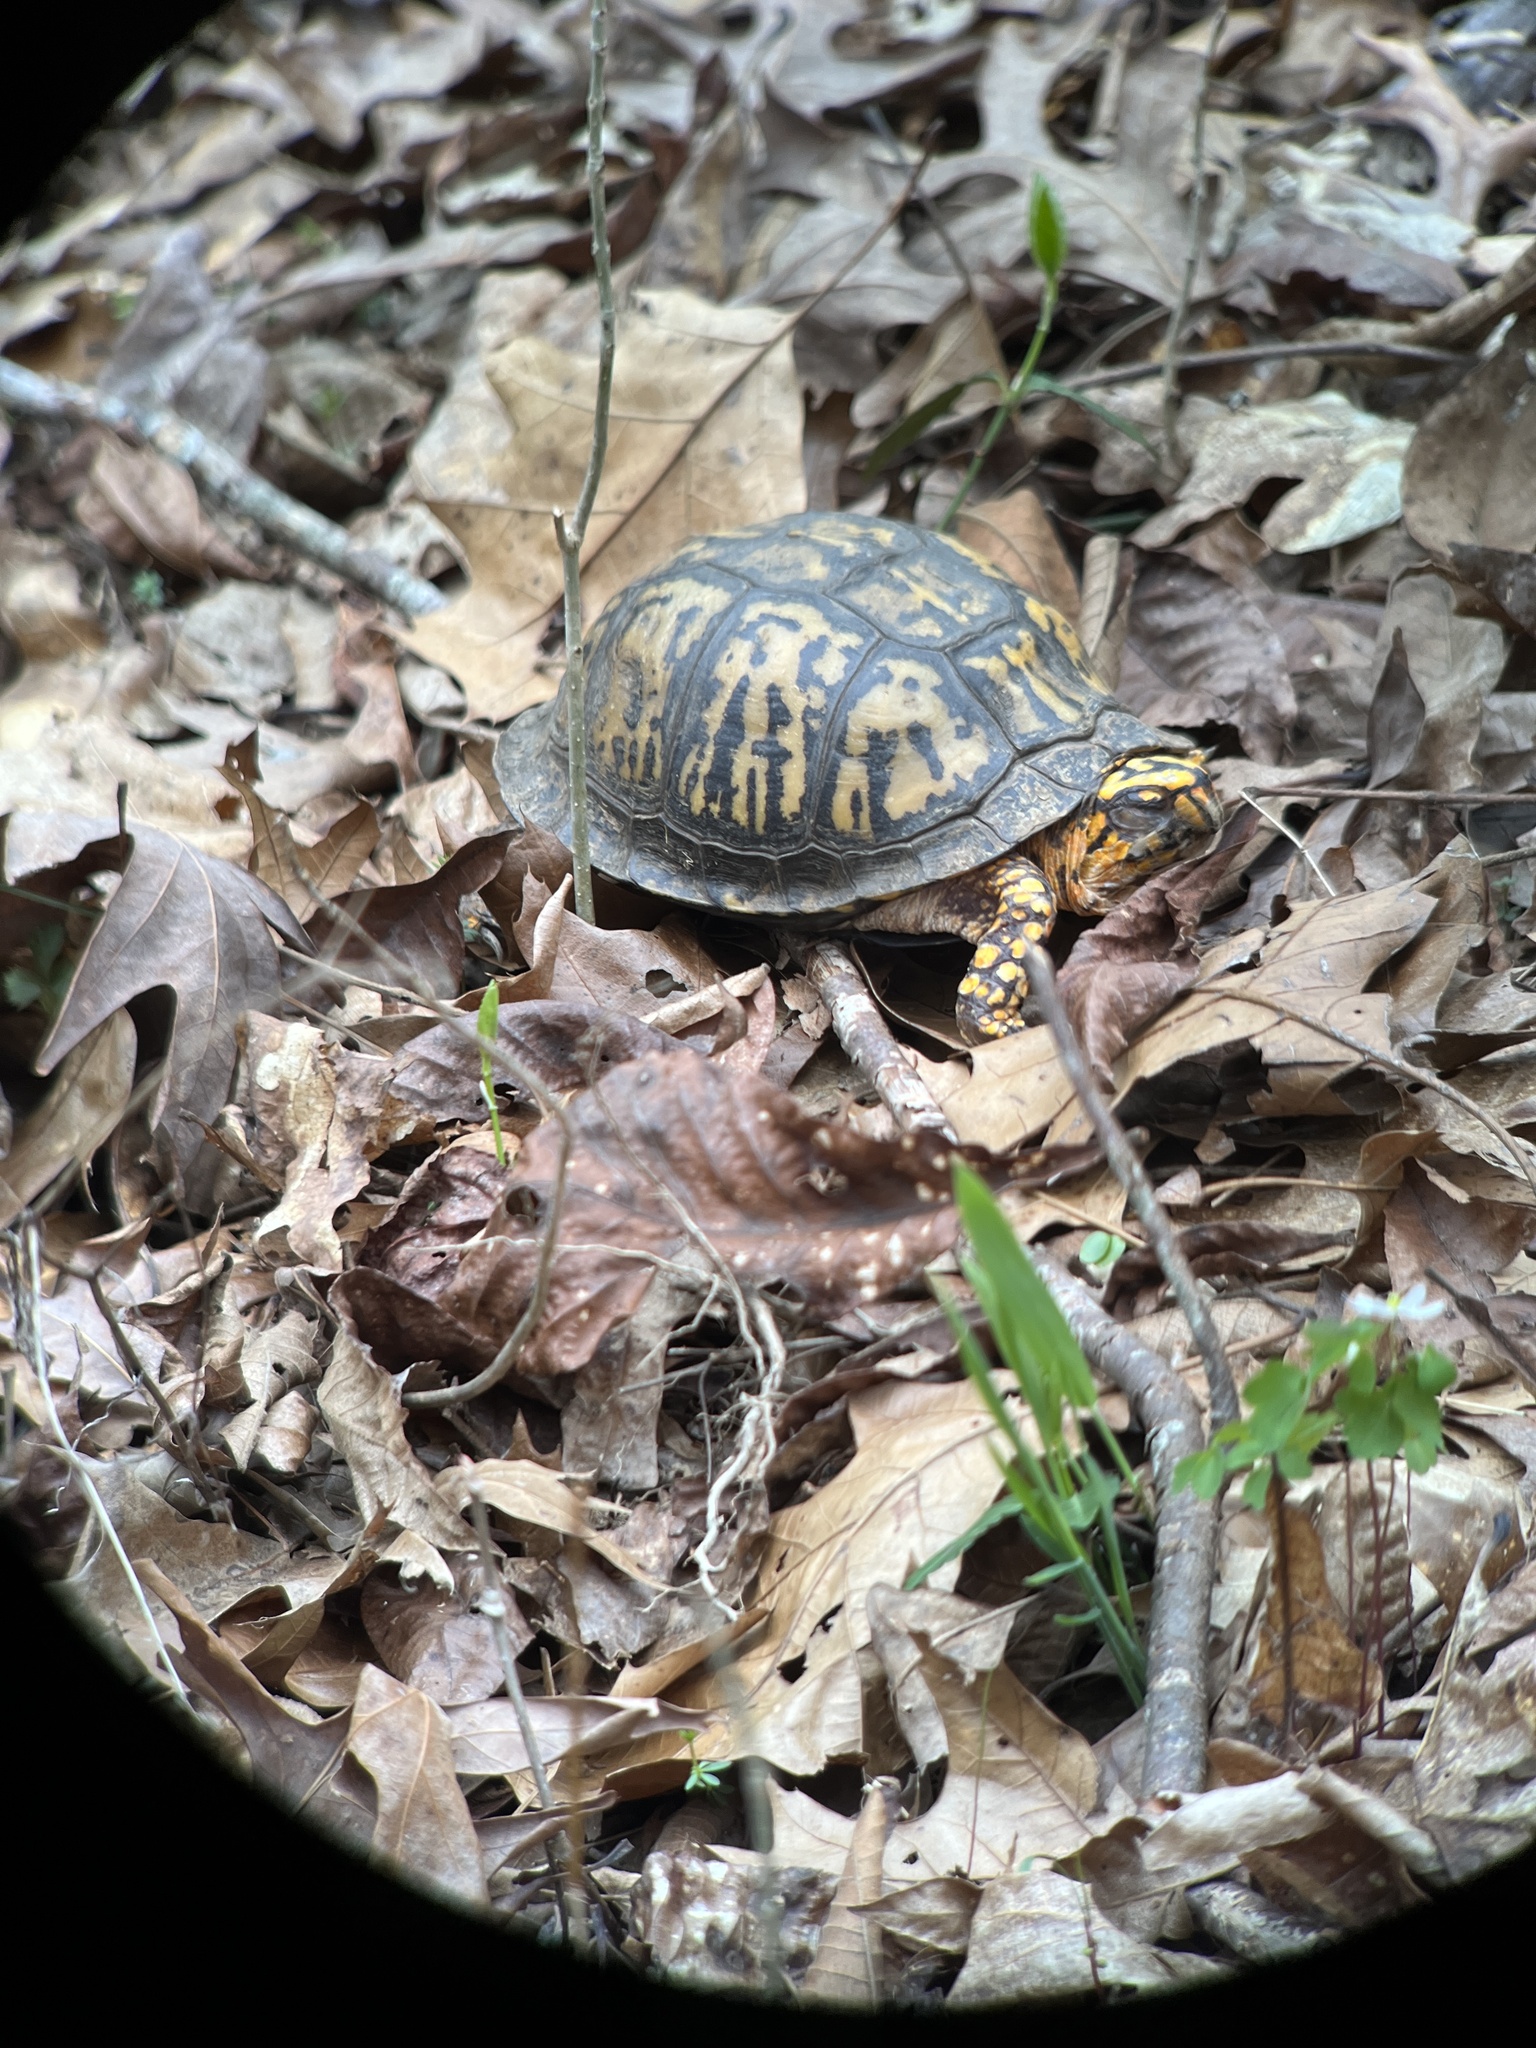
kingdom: Animalia
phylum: Chordata
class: Testudines
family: Emydidae
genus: Terrapene
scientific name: Terrapene carolina
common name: Common box turtle
